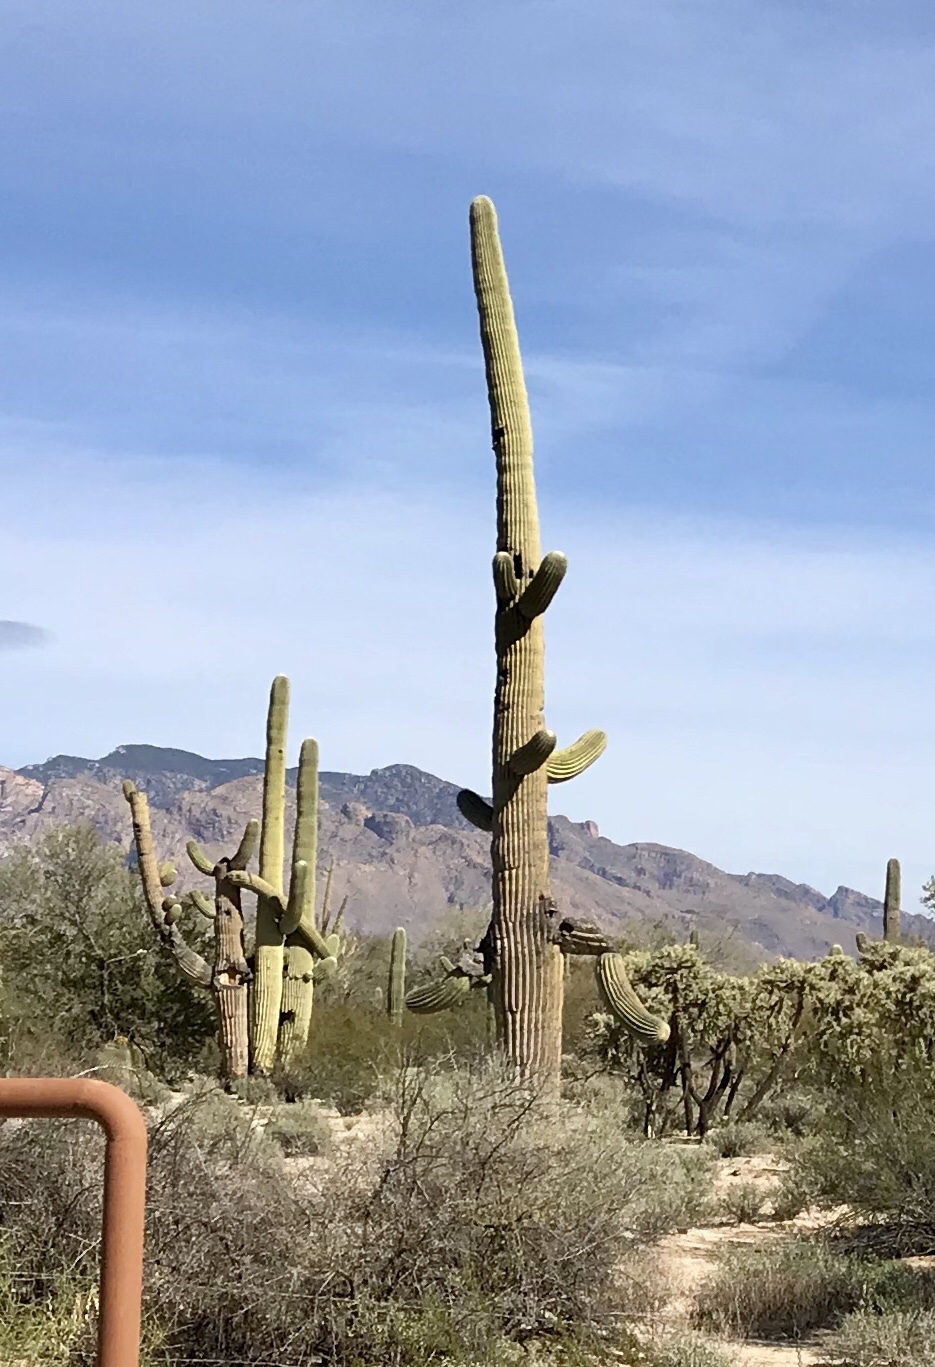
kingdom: Plantae
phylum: Tracheophyta
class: Magnoliopsida
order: Caryophyllales
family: Cactaceae
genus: Carnegiea
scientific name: Carnegiea gigantea
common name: Saguaro
